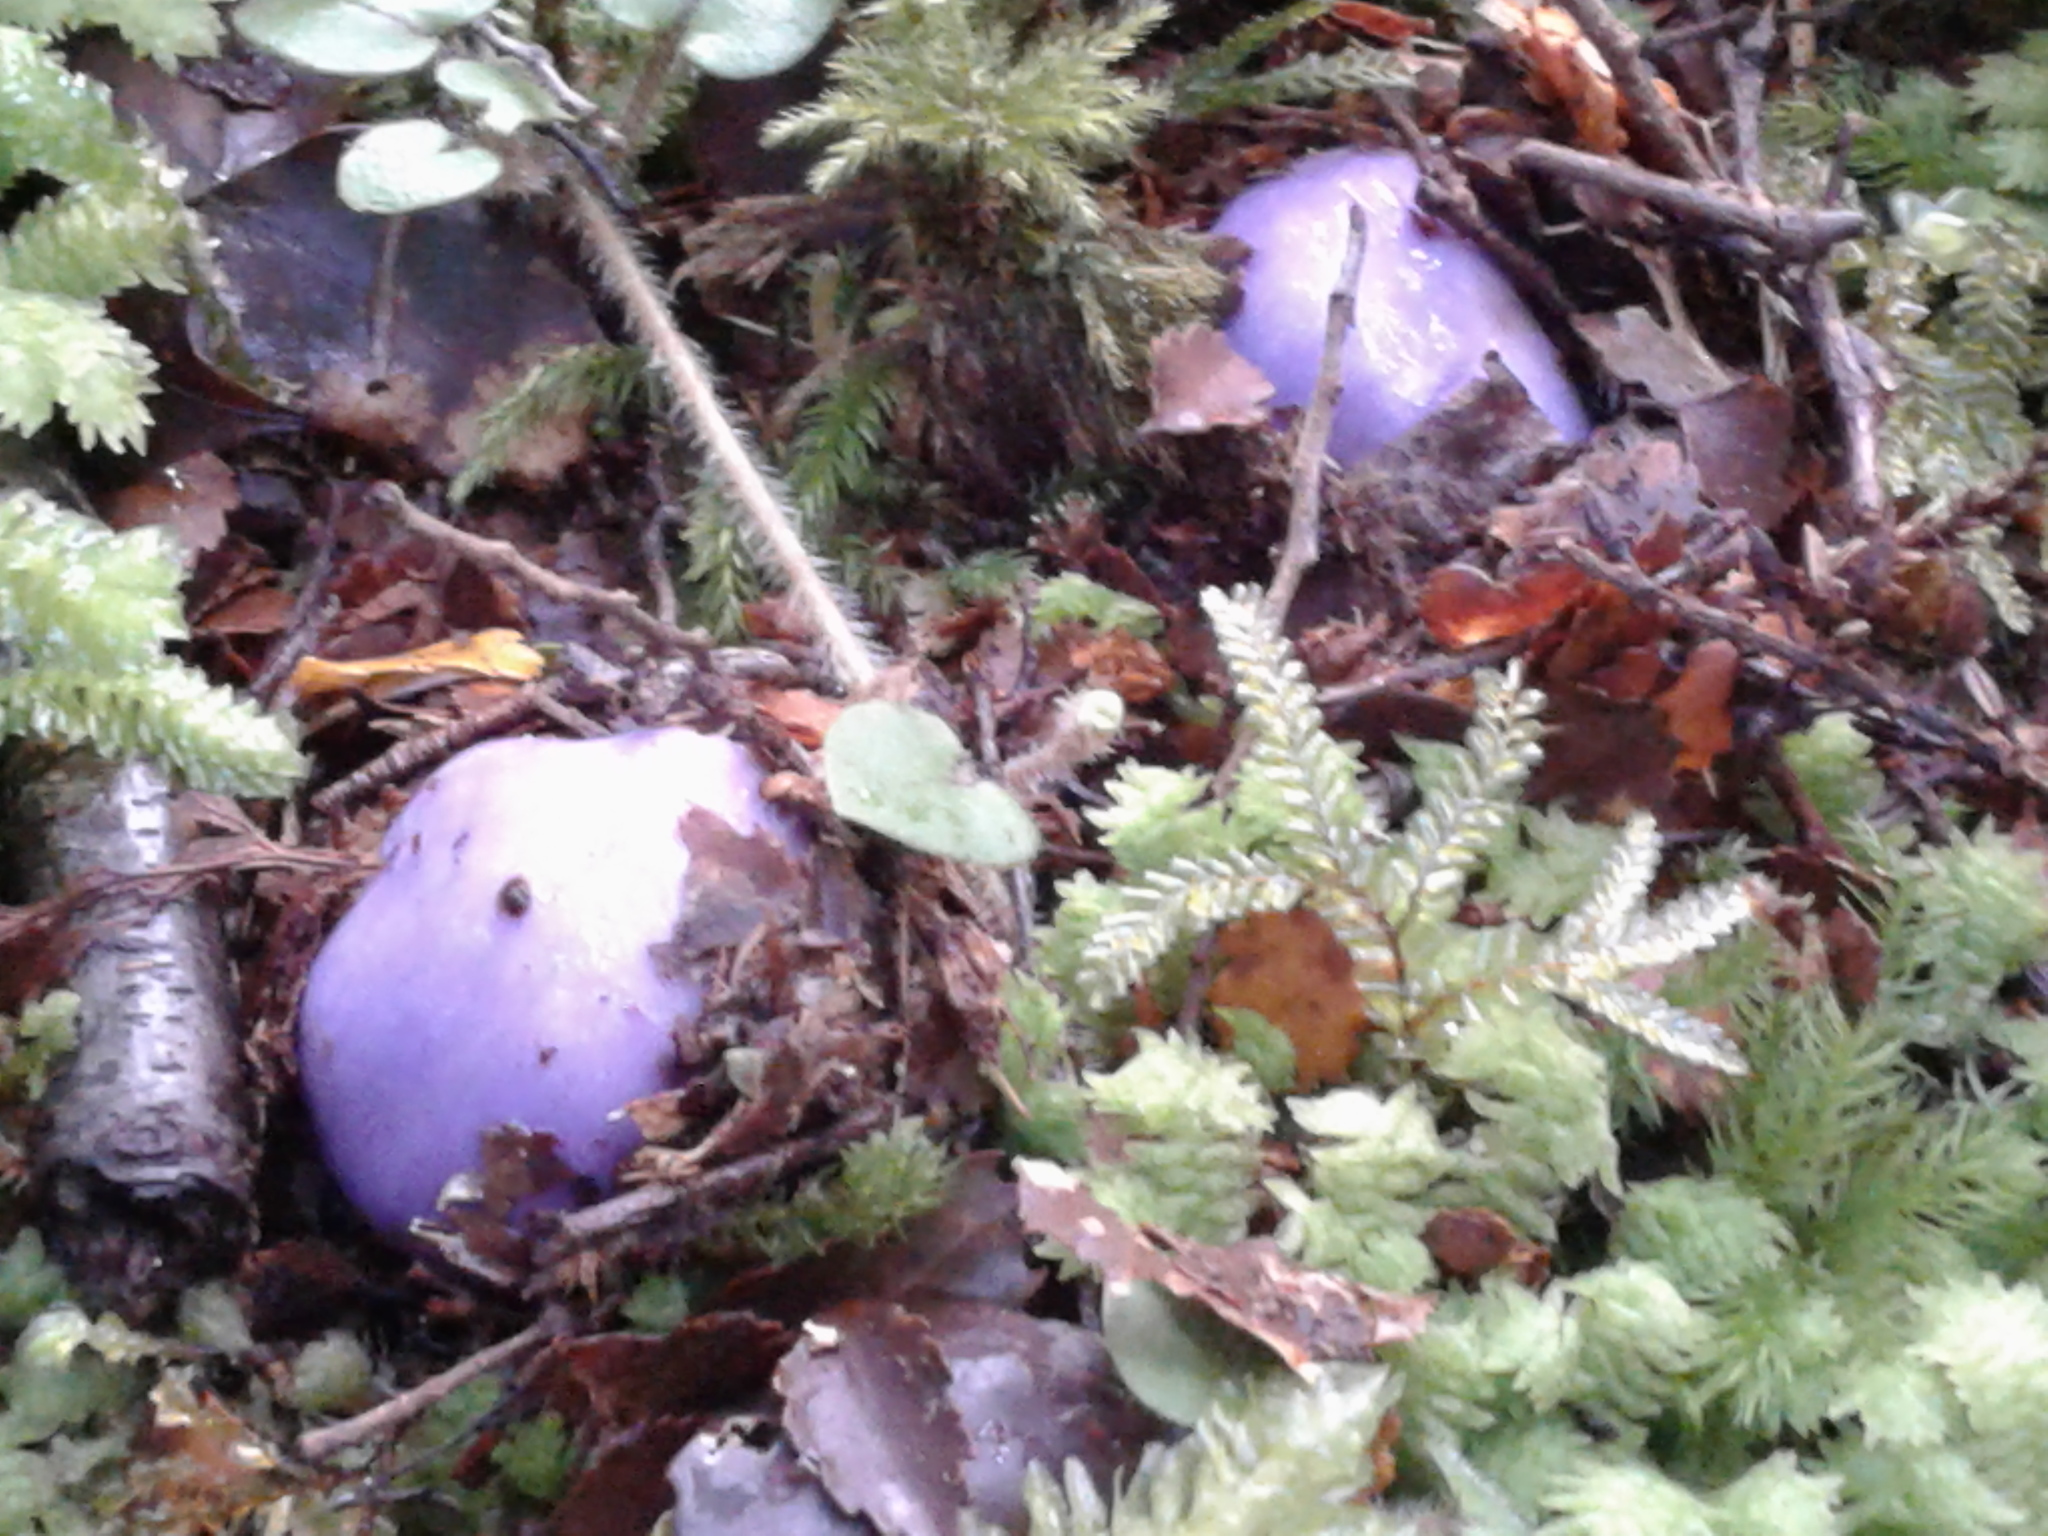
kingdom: Fungi
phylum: Basidiomycota
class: Agaricomycetes
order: Agaricales
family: Cortinariaceae
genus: Cortinarius
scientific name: Cortinarius
